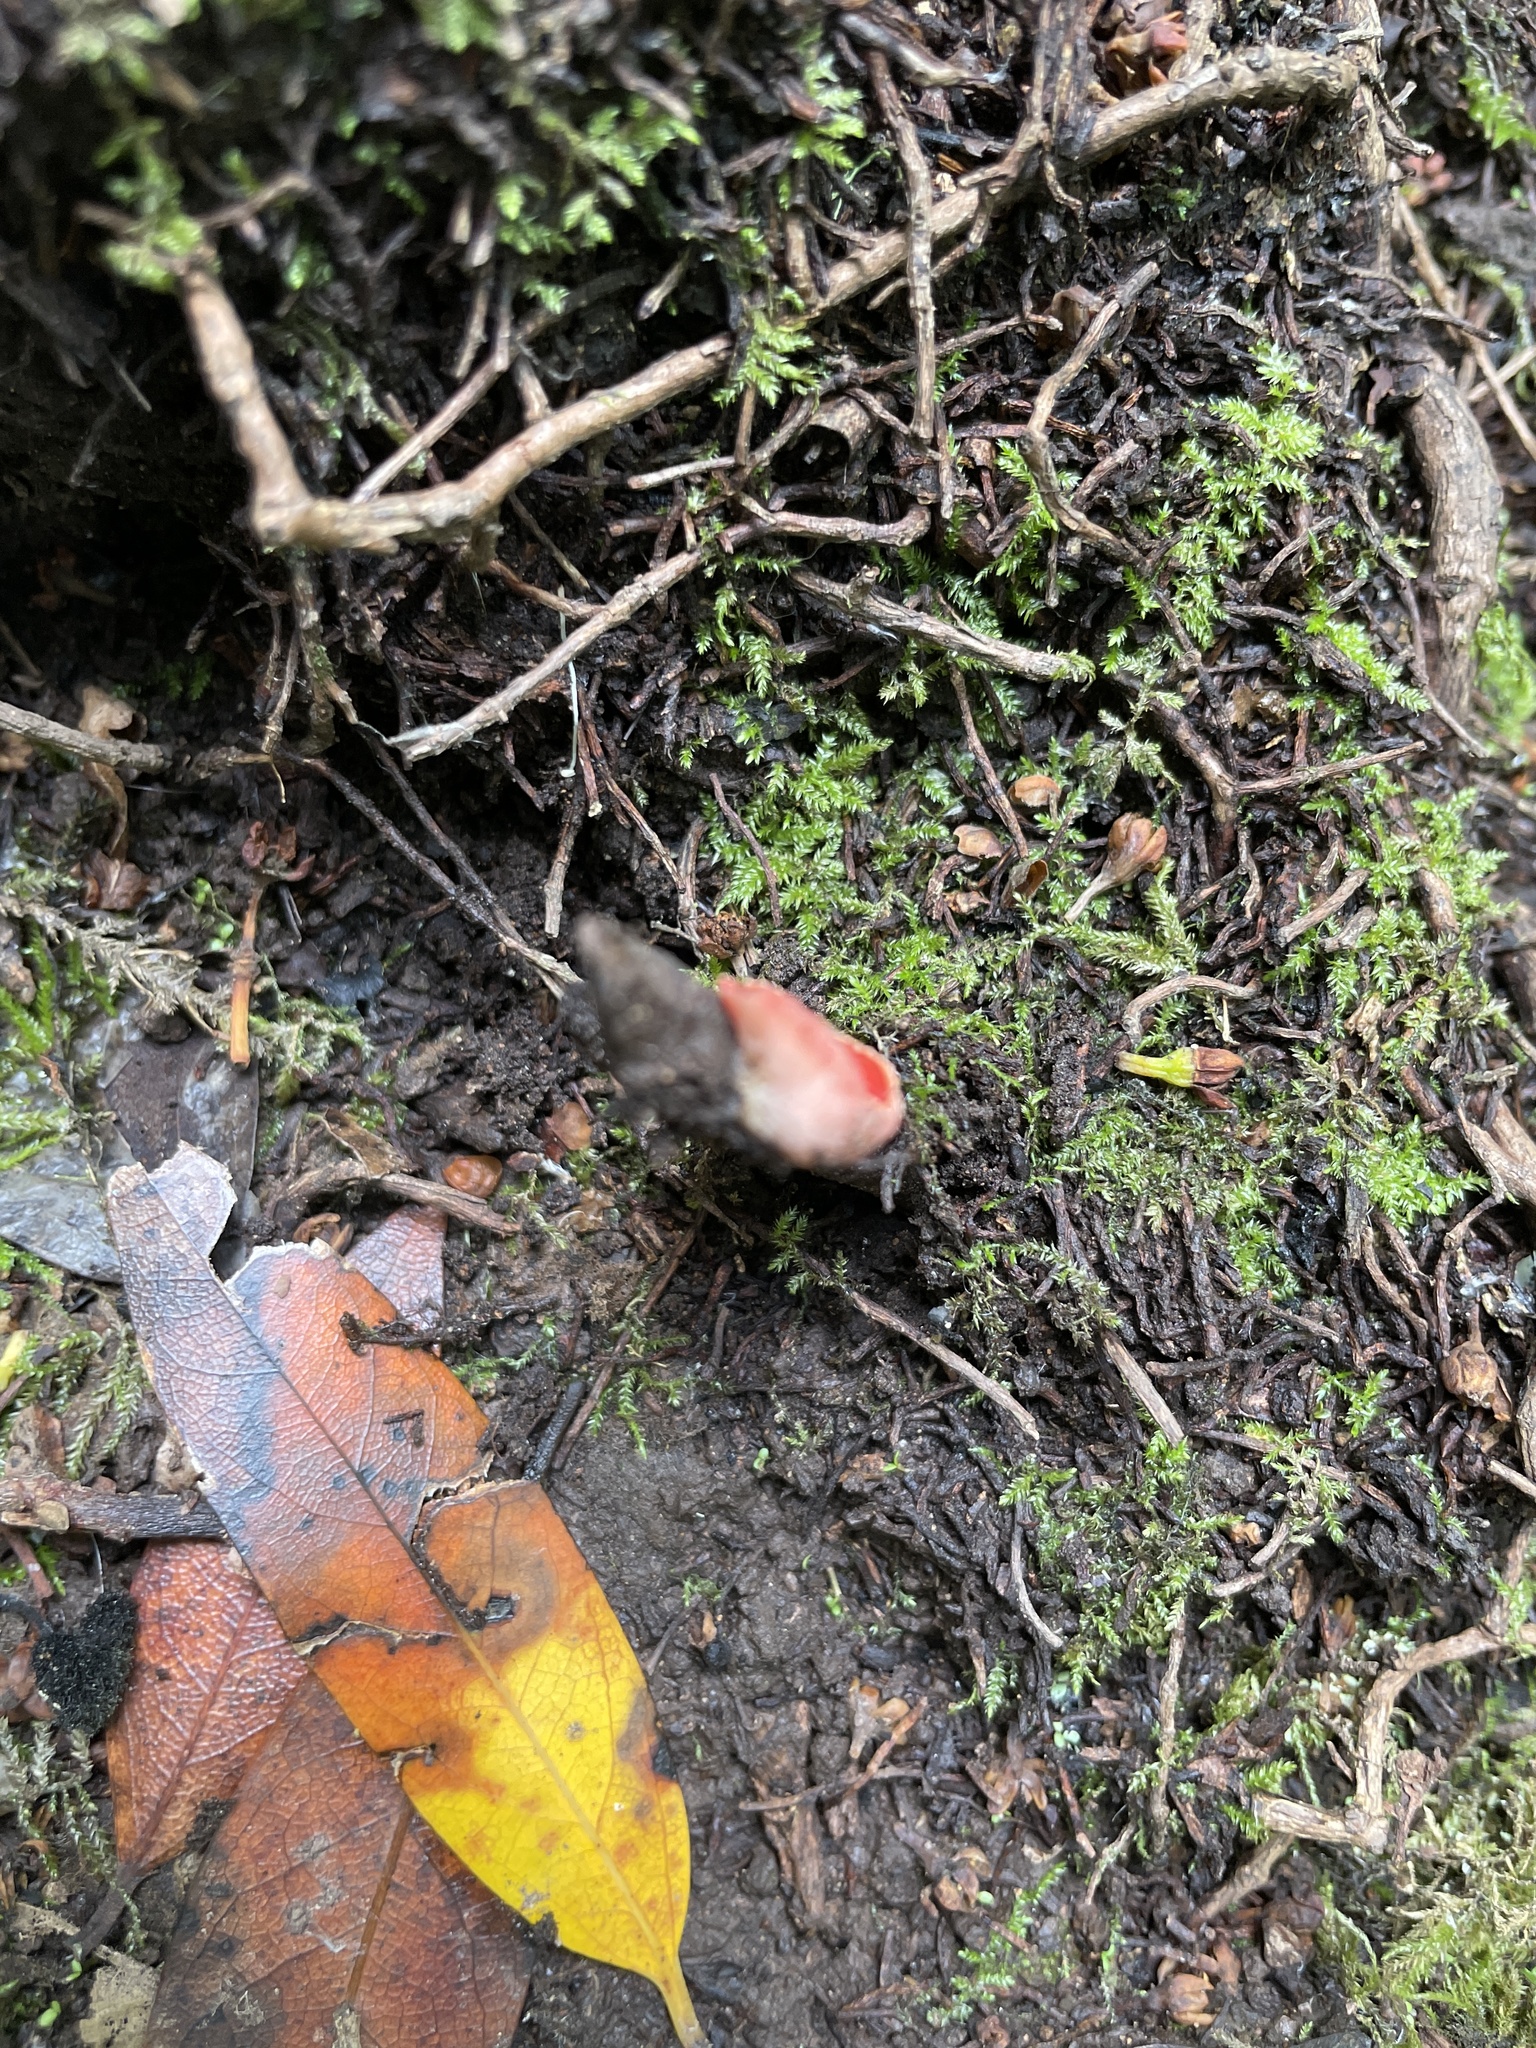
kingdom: Fungi
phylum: Ascomycota
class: Pezizomycetes
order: Pezizales
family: Sarcoscyphaceae
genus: Sarcoscypha
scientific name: Sarcoscypha occidentalis
